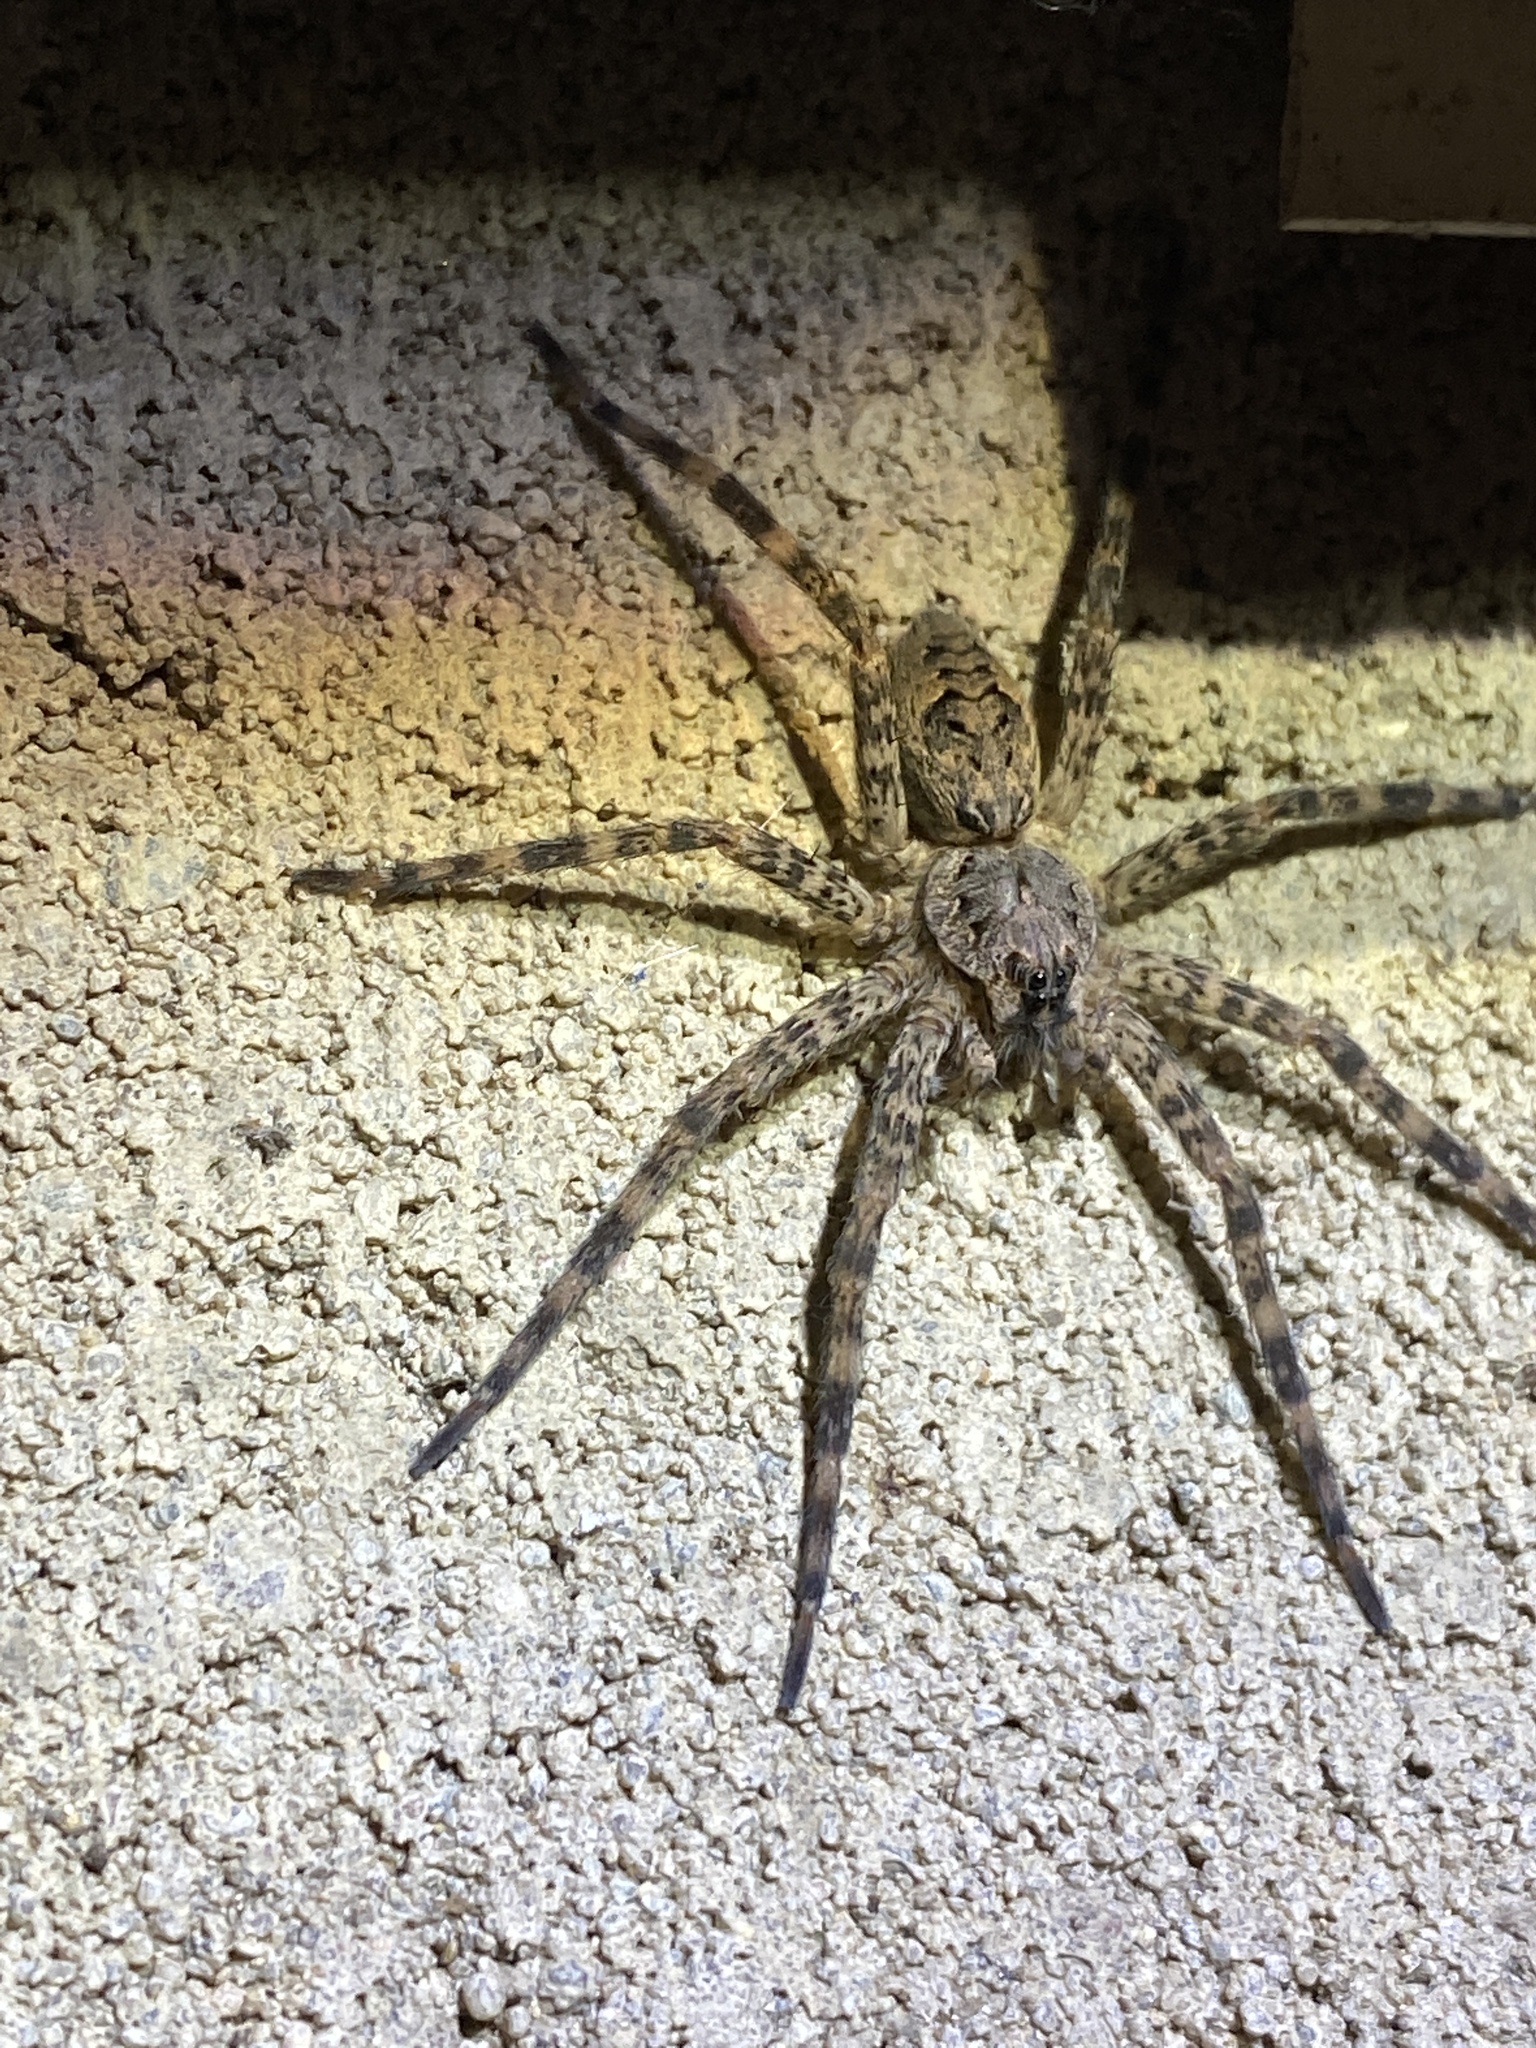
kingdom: Animalia
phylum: Arthropoda
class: Arachnida
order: Araneae
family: Pisauridae
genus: Dolomedes
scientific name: Dolomedes tenebrosus
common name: Dark fishing spider
